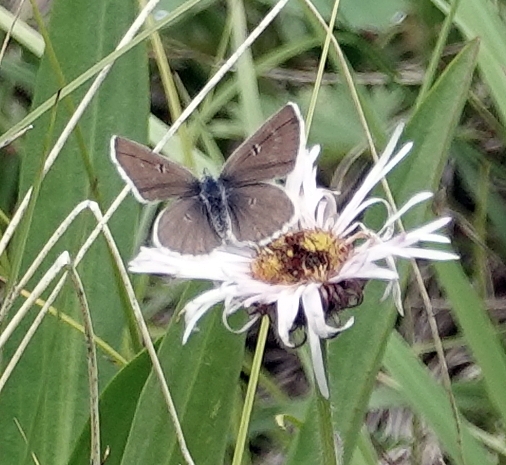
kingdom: Animalia
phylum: Arthropoda
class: Insecta
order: Lepidoptera
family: Lycaenidae
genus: Agriades
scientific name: Agriades glandon
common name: Glandon blue
